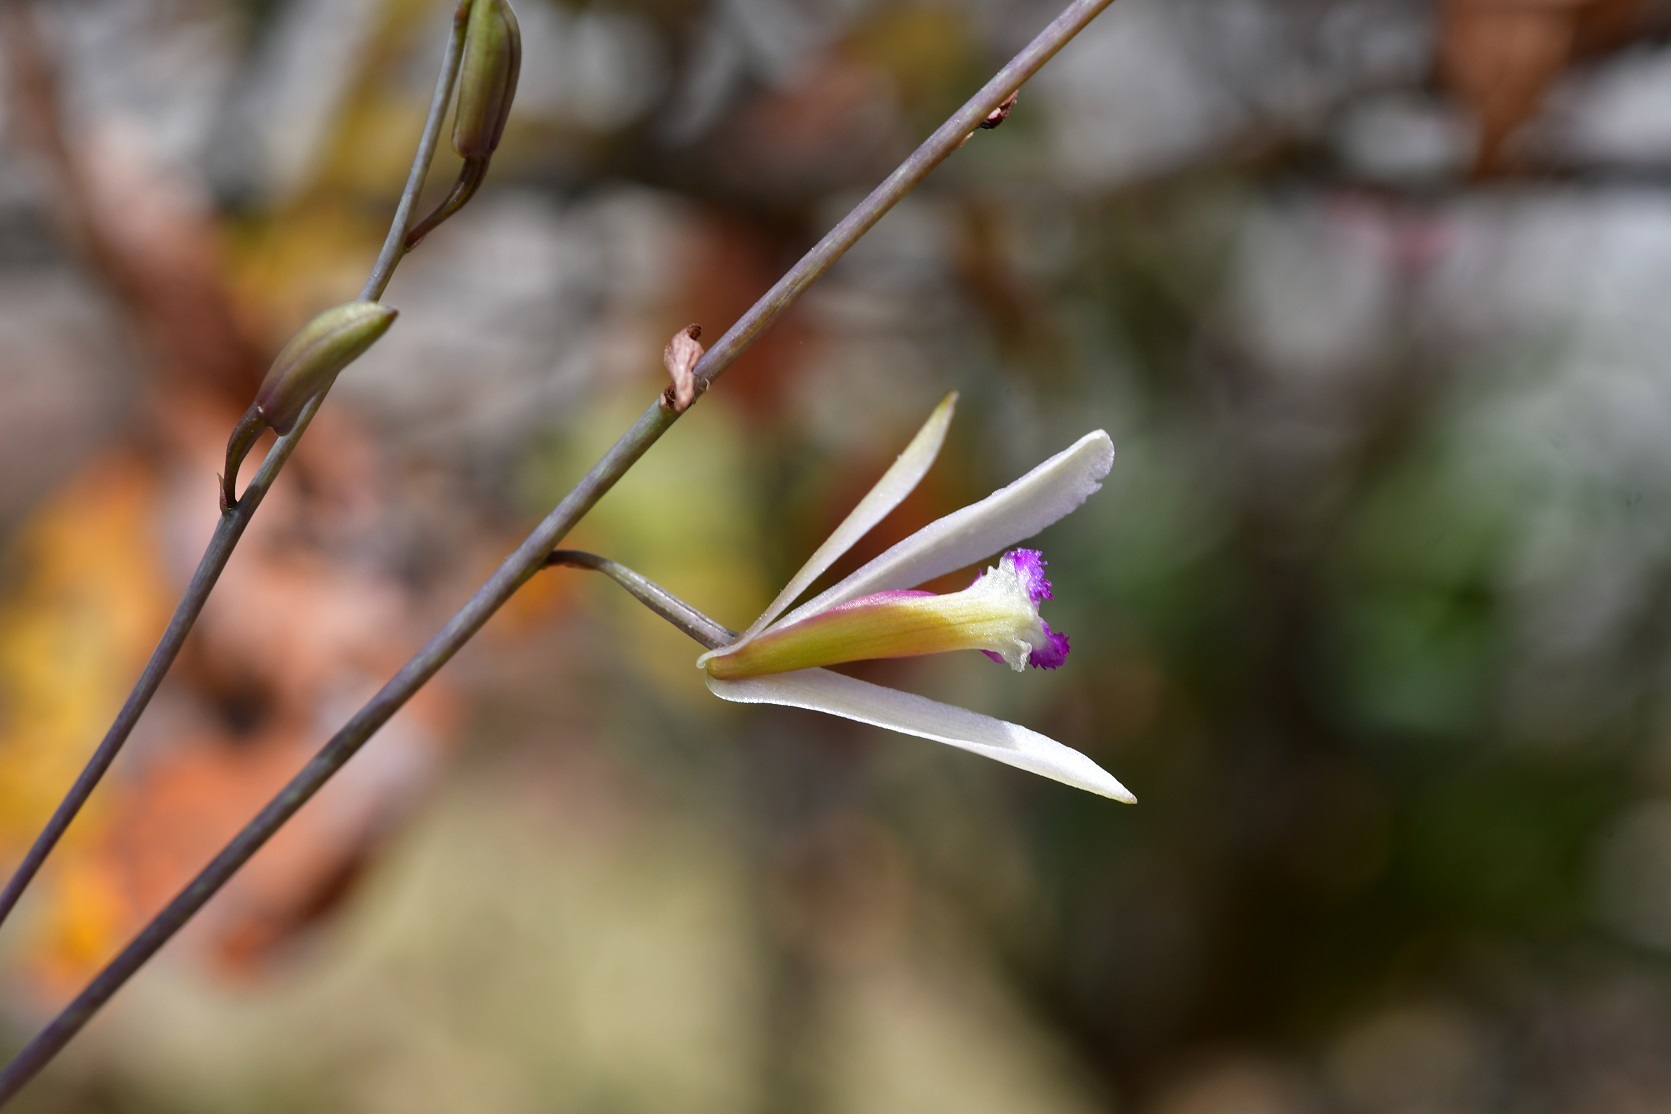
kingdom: Plantae
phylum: Tracheophyta
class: Liliopsida
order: Asparagales
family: Orchidaceae
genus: Bletia
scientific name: Bletia parkinsonii
